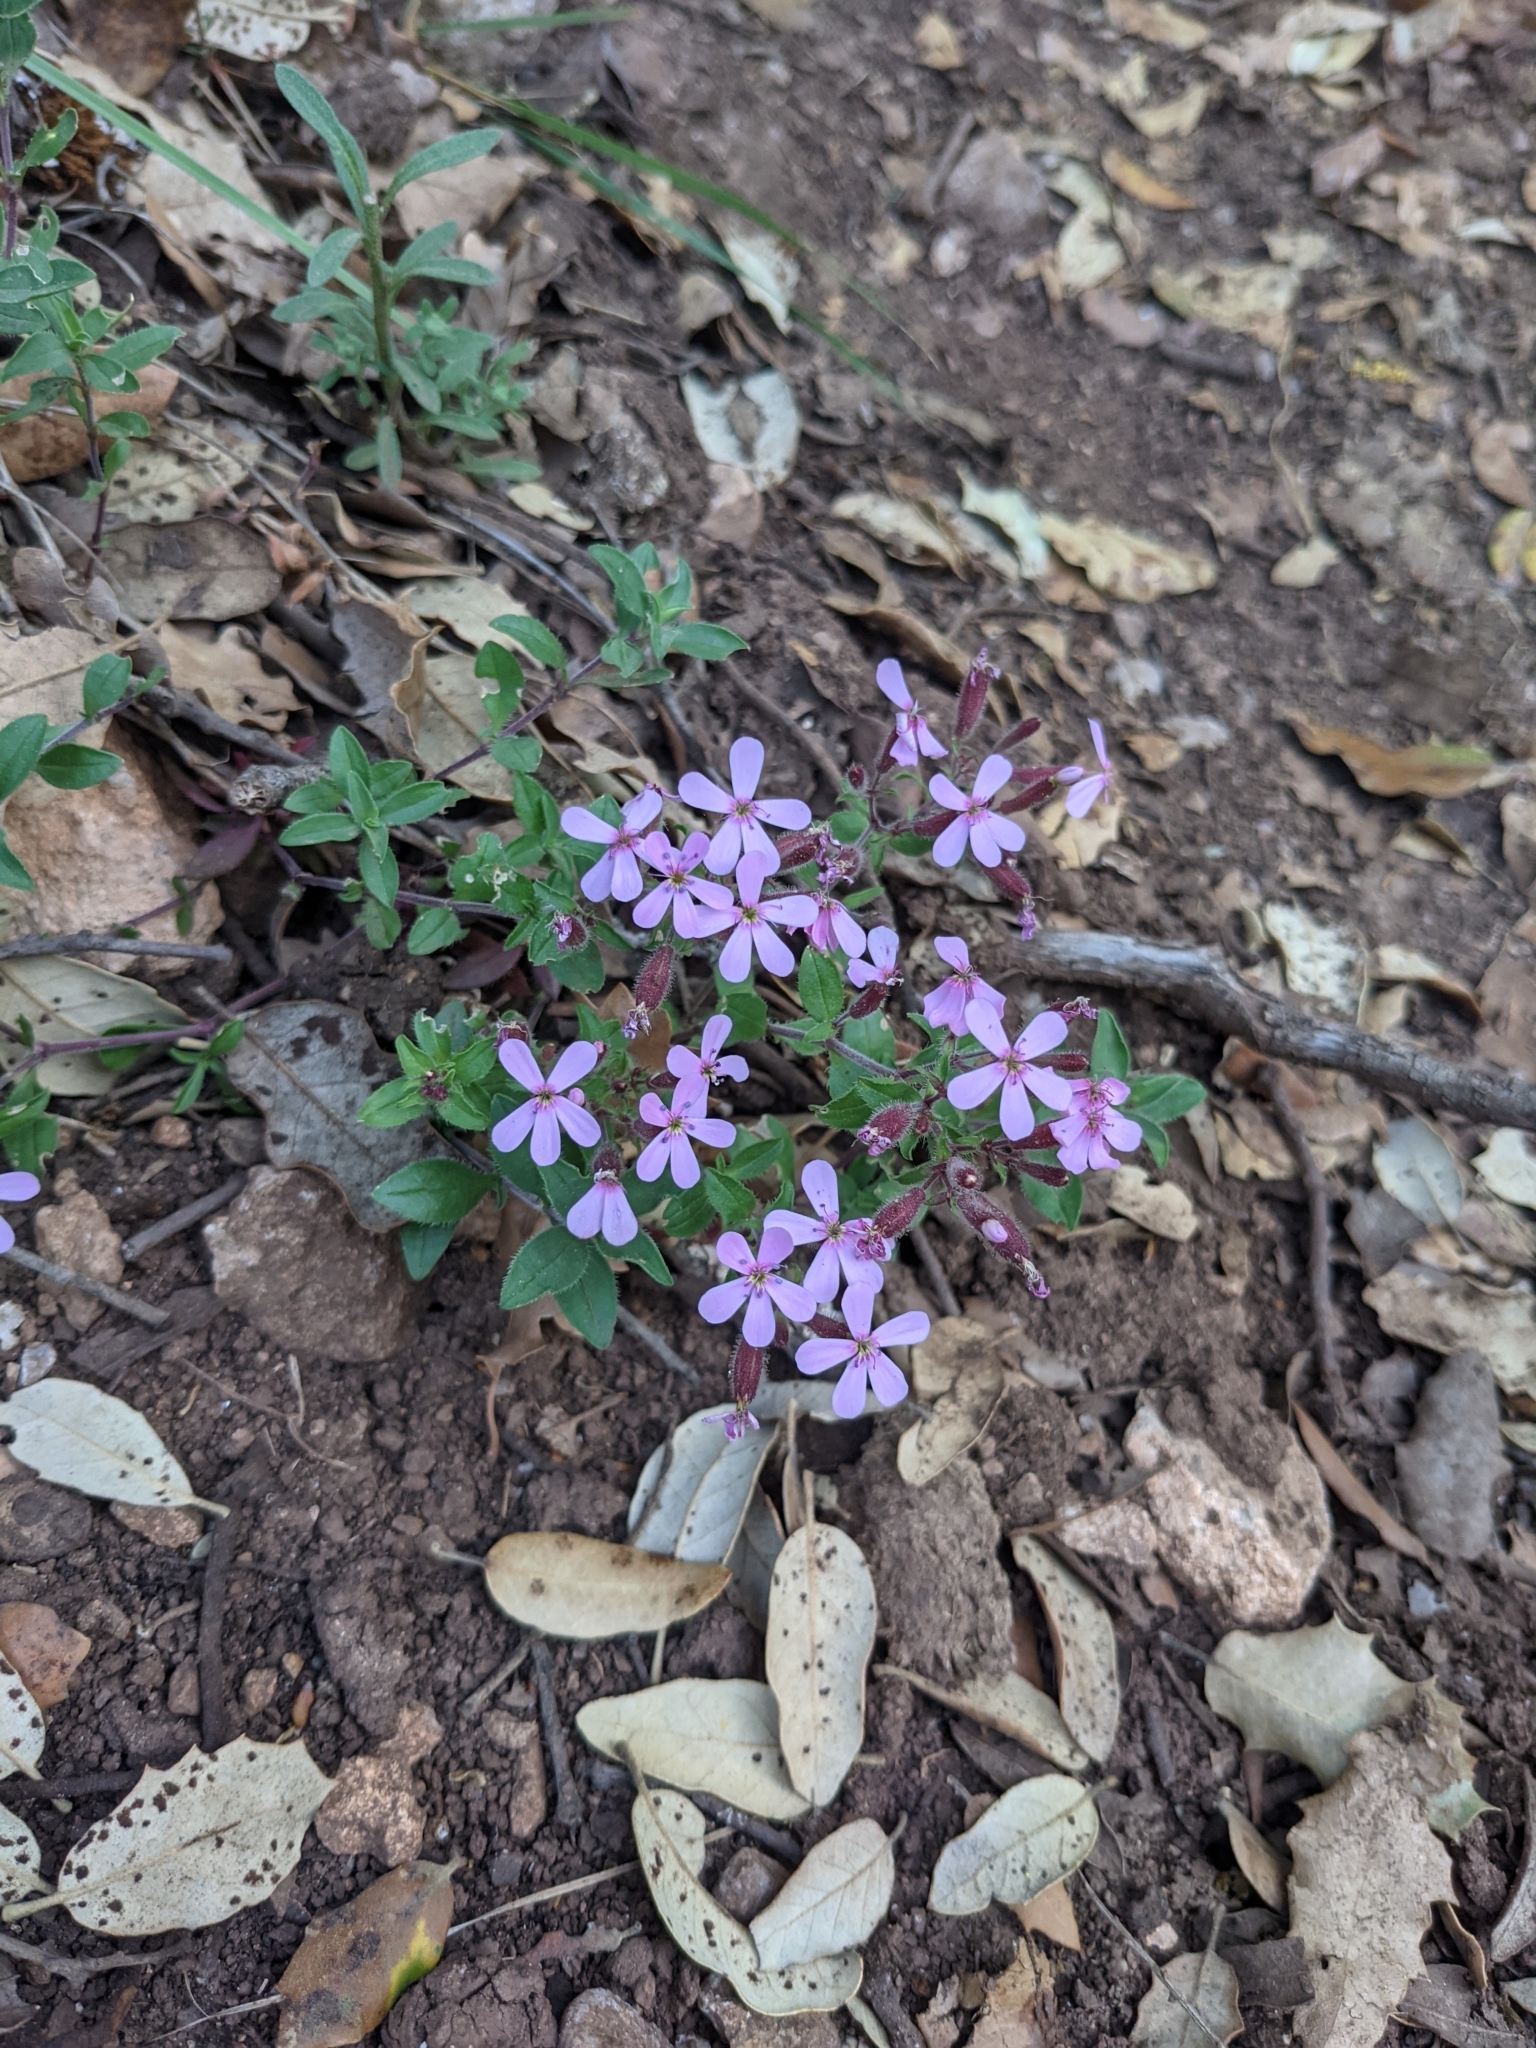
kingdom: Plantae
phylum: Tracheophyta
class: Magnoliopsida
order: Caryophyllales
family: Caryophyllaceae
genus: Saponaria
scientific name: Saponaria ocymoides
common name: Rock soapwort
